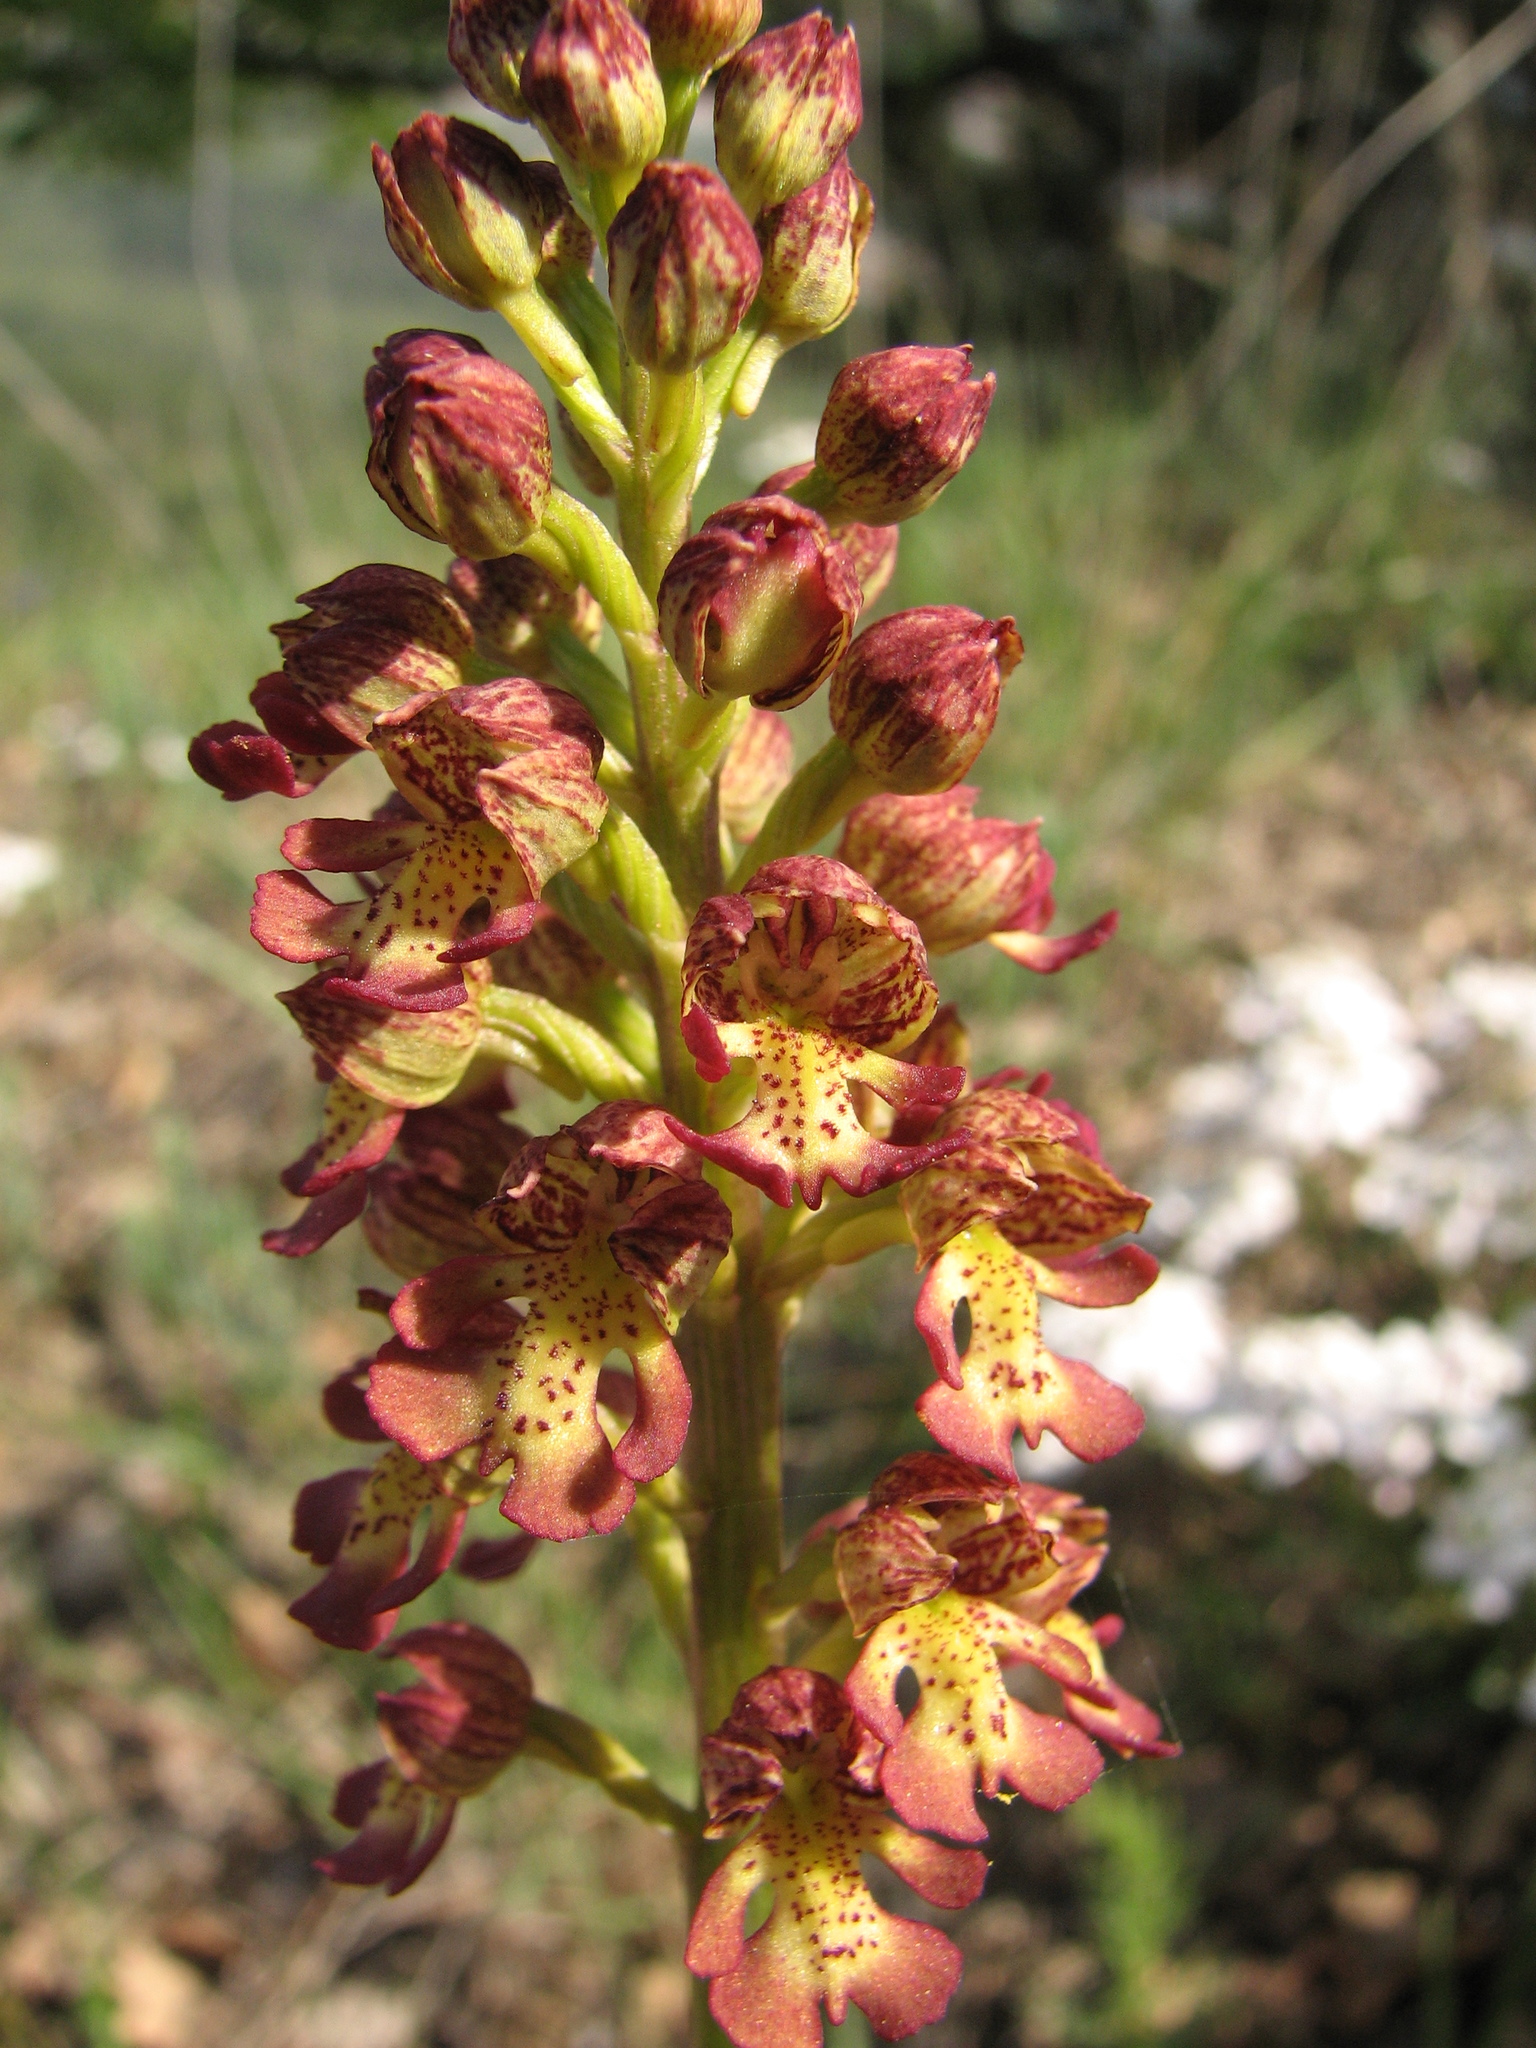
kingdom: Plantae
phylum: Tracheophyta
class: Liliopsida
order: Asparagales
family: Orchidaceae
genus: Orchis
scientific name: Orchis wulffiana
